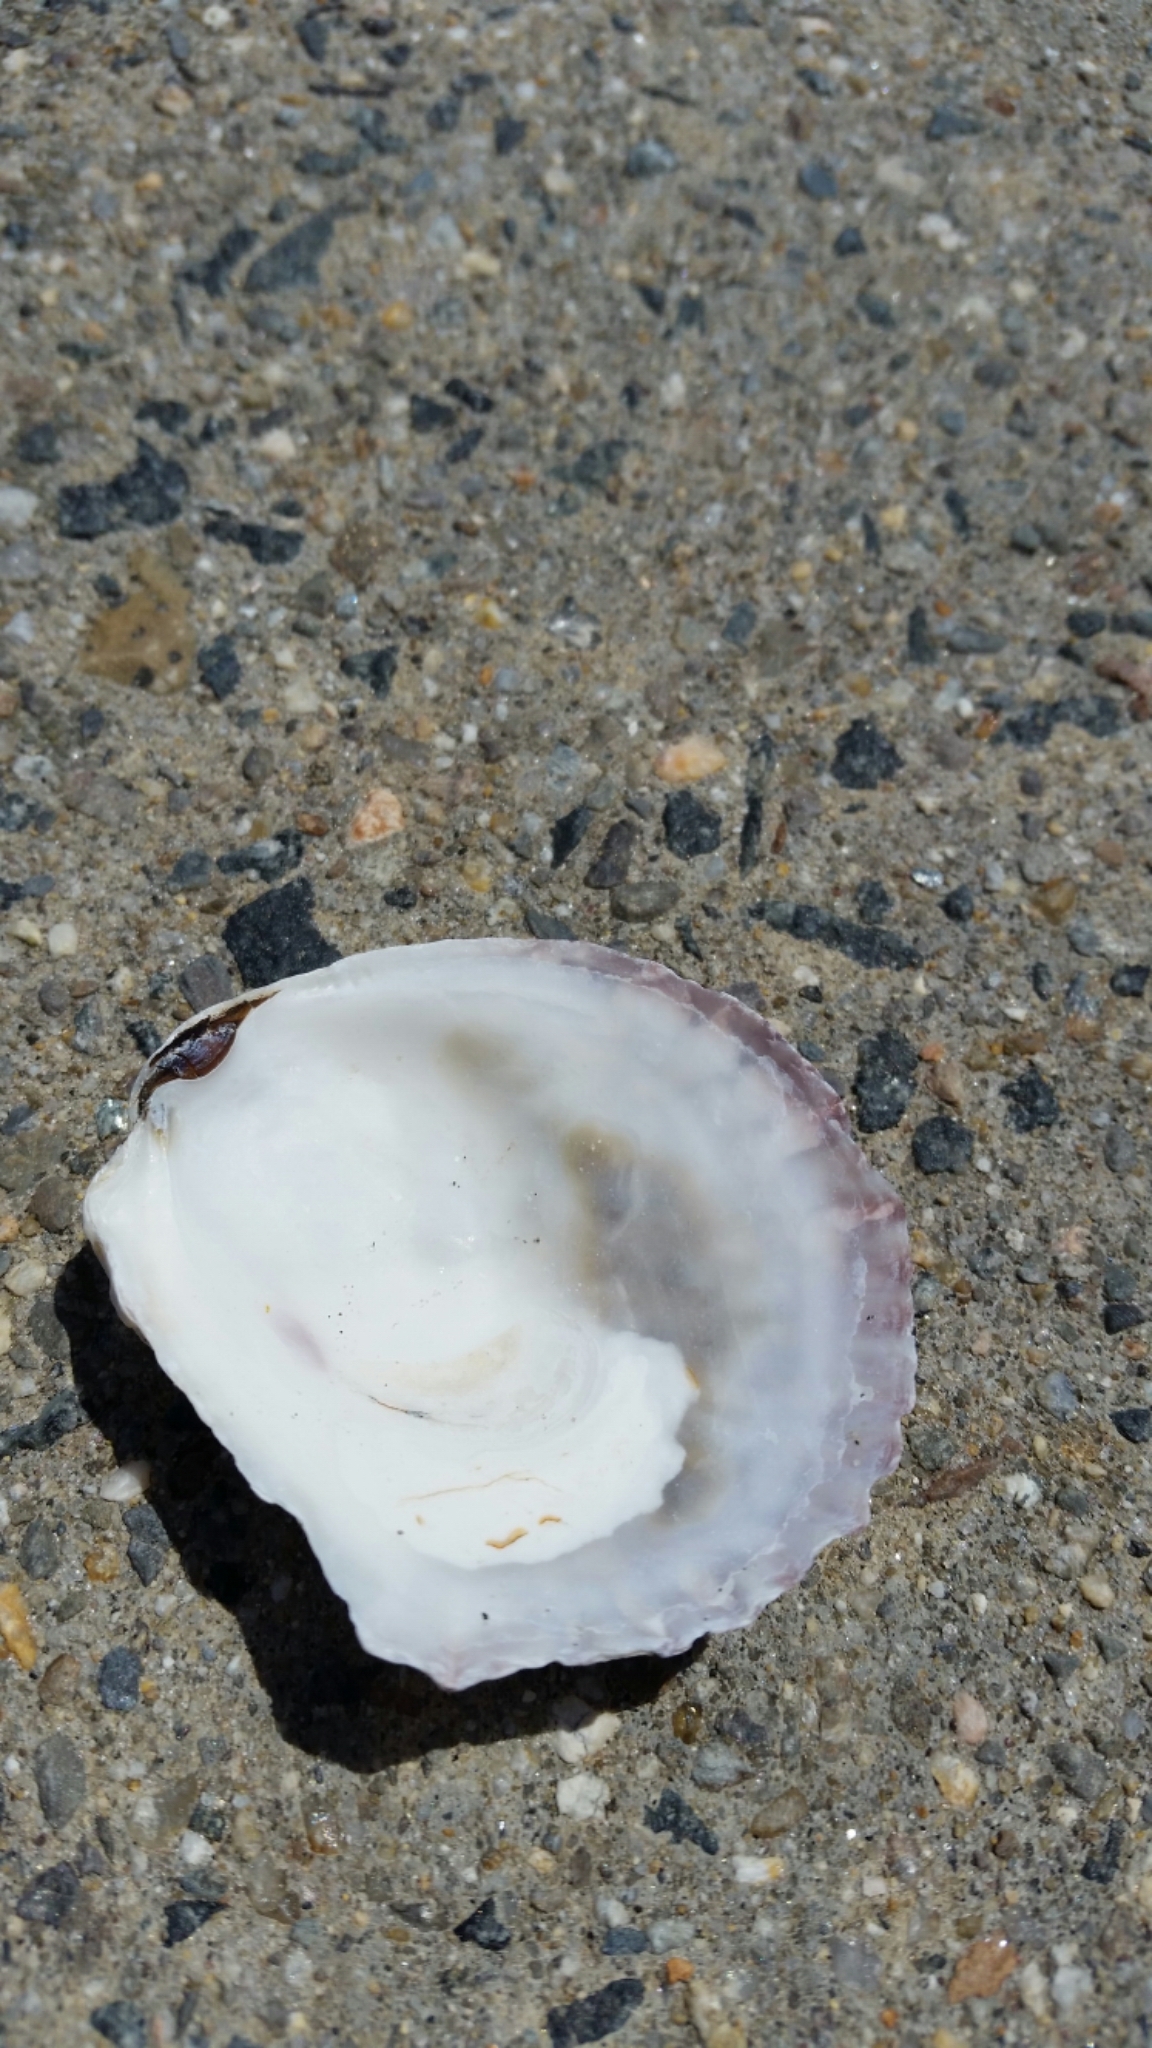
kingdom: Animalia
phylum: Mollusca
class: Bivalvia
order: Ostreida
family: Ostreidae
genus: Ostrea
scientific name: Ostrea edulis
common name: Flat oyster
